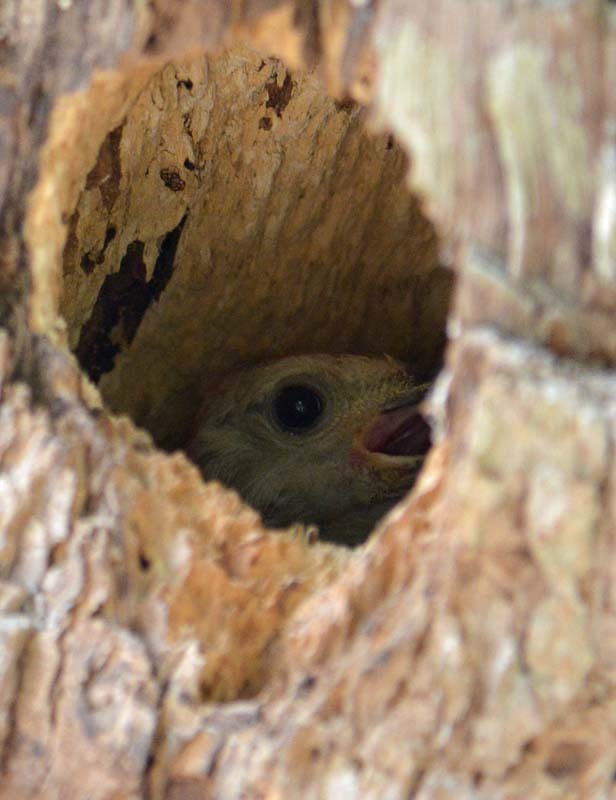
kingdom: Animalia
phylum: Chordata
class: Aves
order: Piciformes
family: Picidae
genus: Melanerpes
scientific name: Melanerpes aurifrons
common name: Golden-fronted woodpecker
